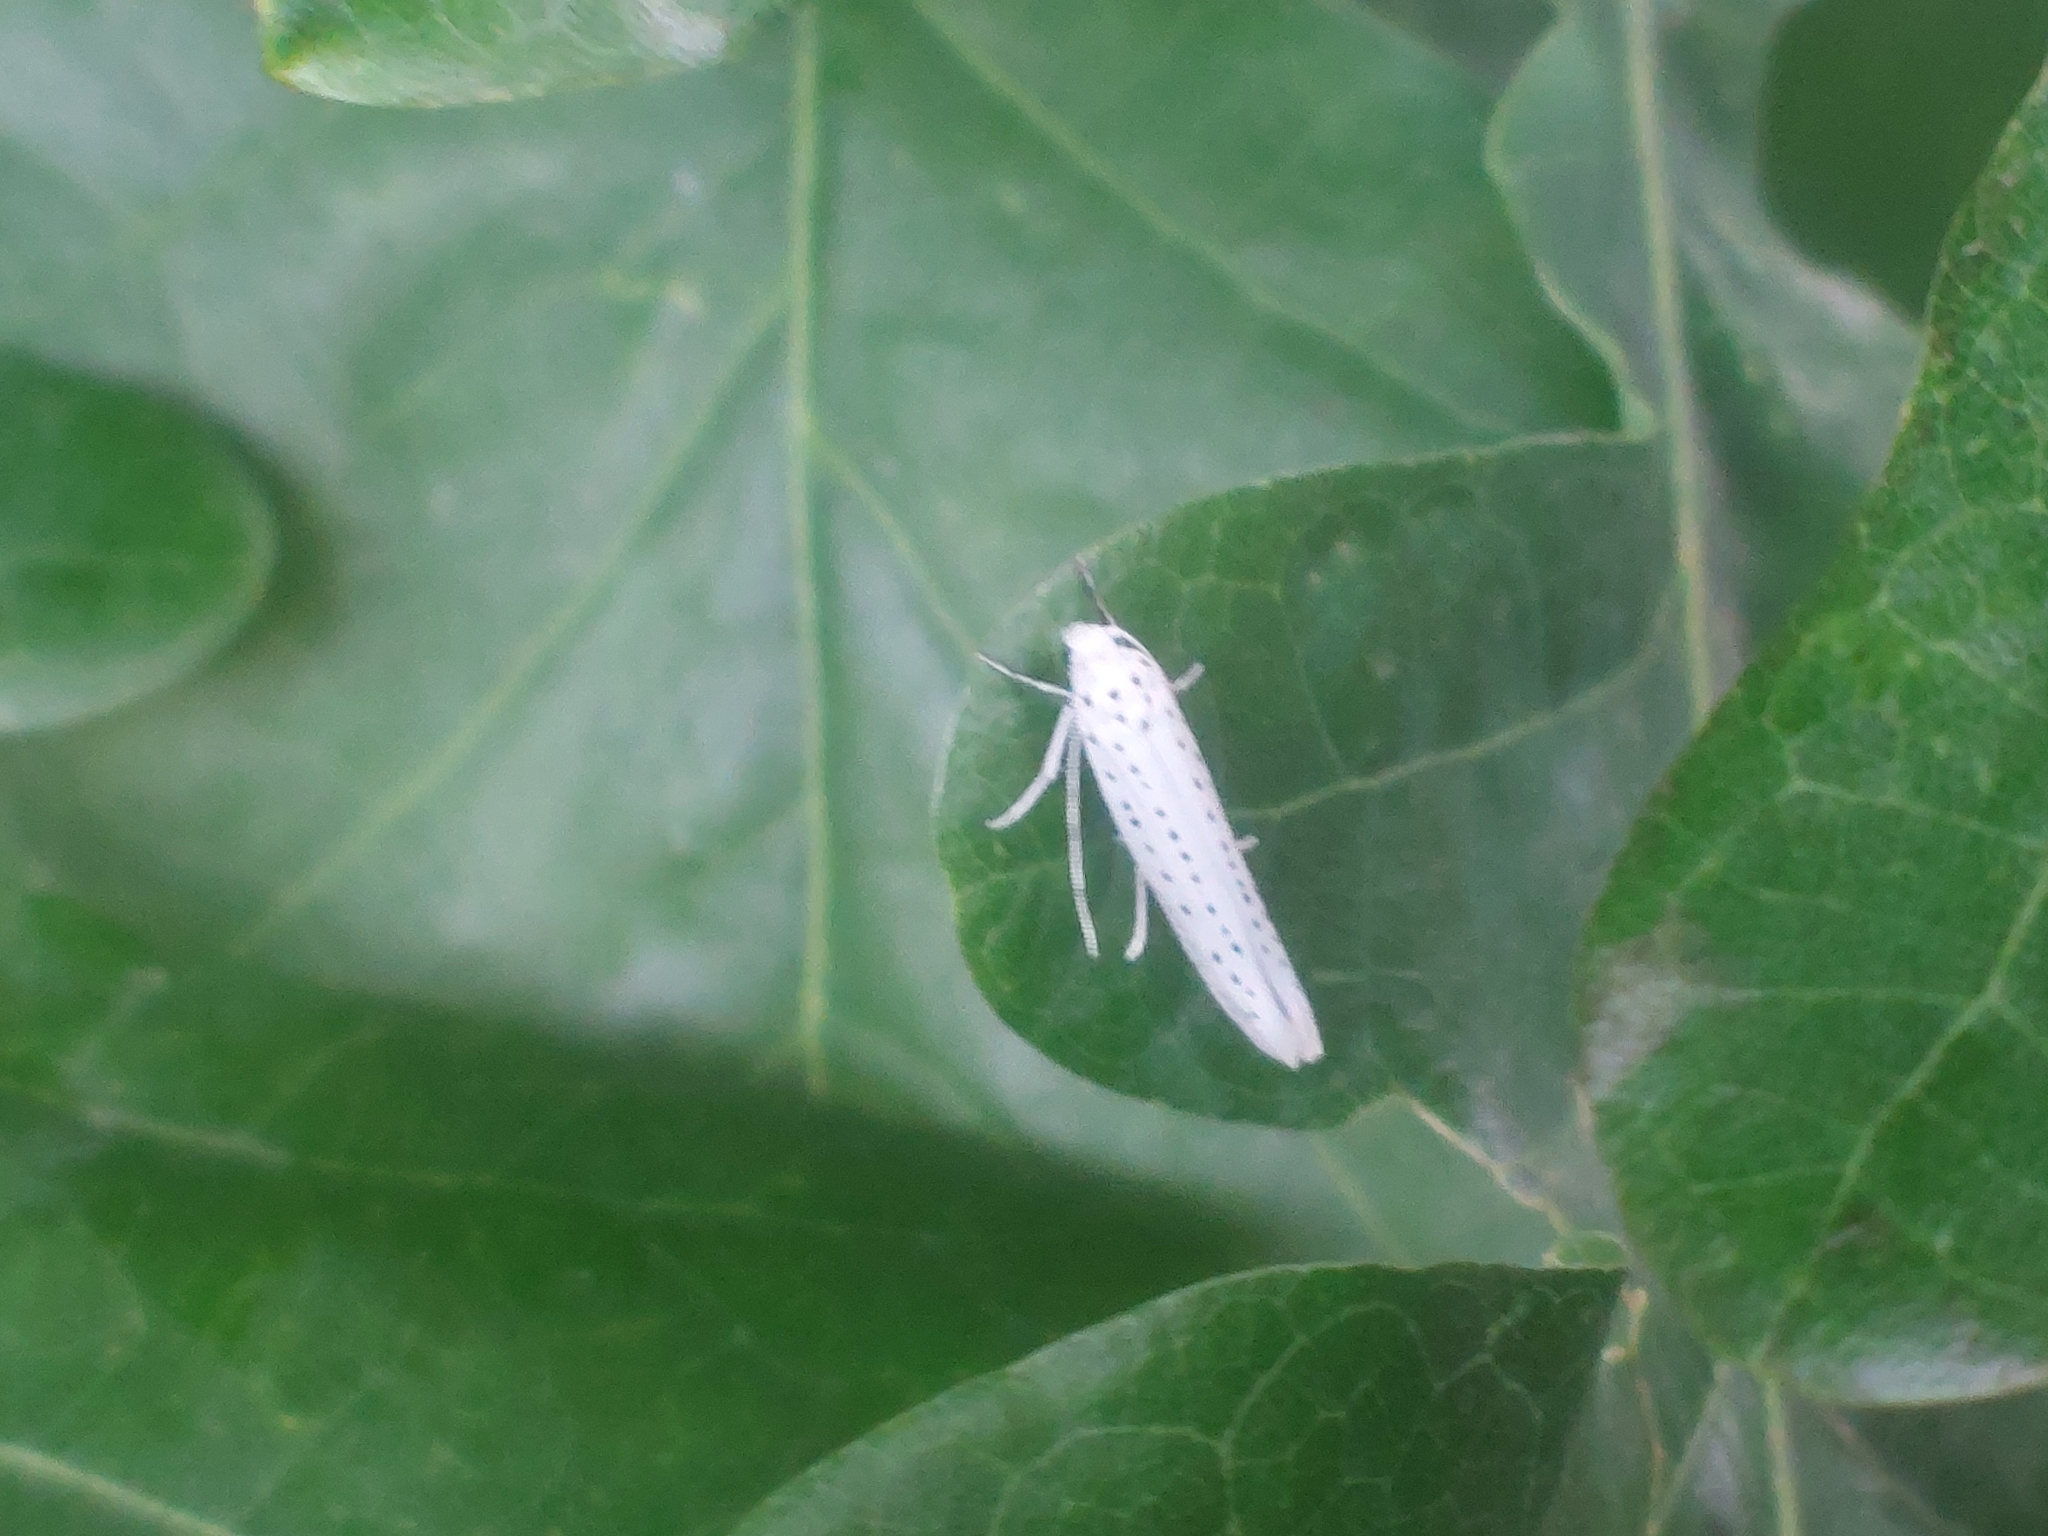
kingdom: Animalia
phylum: Arthropoda
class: Insecta
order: Lepidoptera
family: Yponomeutidae
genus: Yponomeuta
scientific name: Yponomeuta evonymella
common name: Bird-cherry ermine
